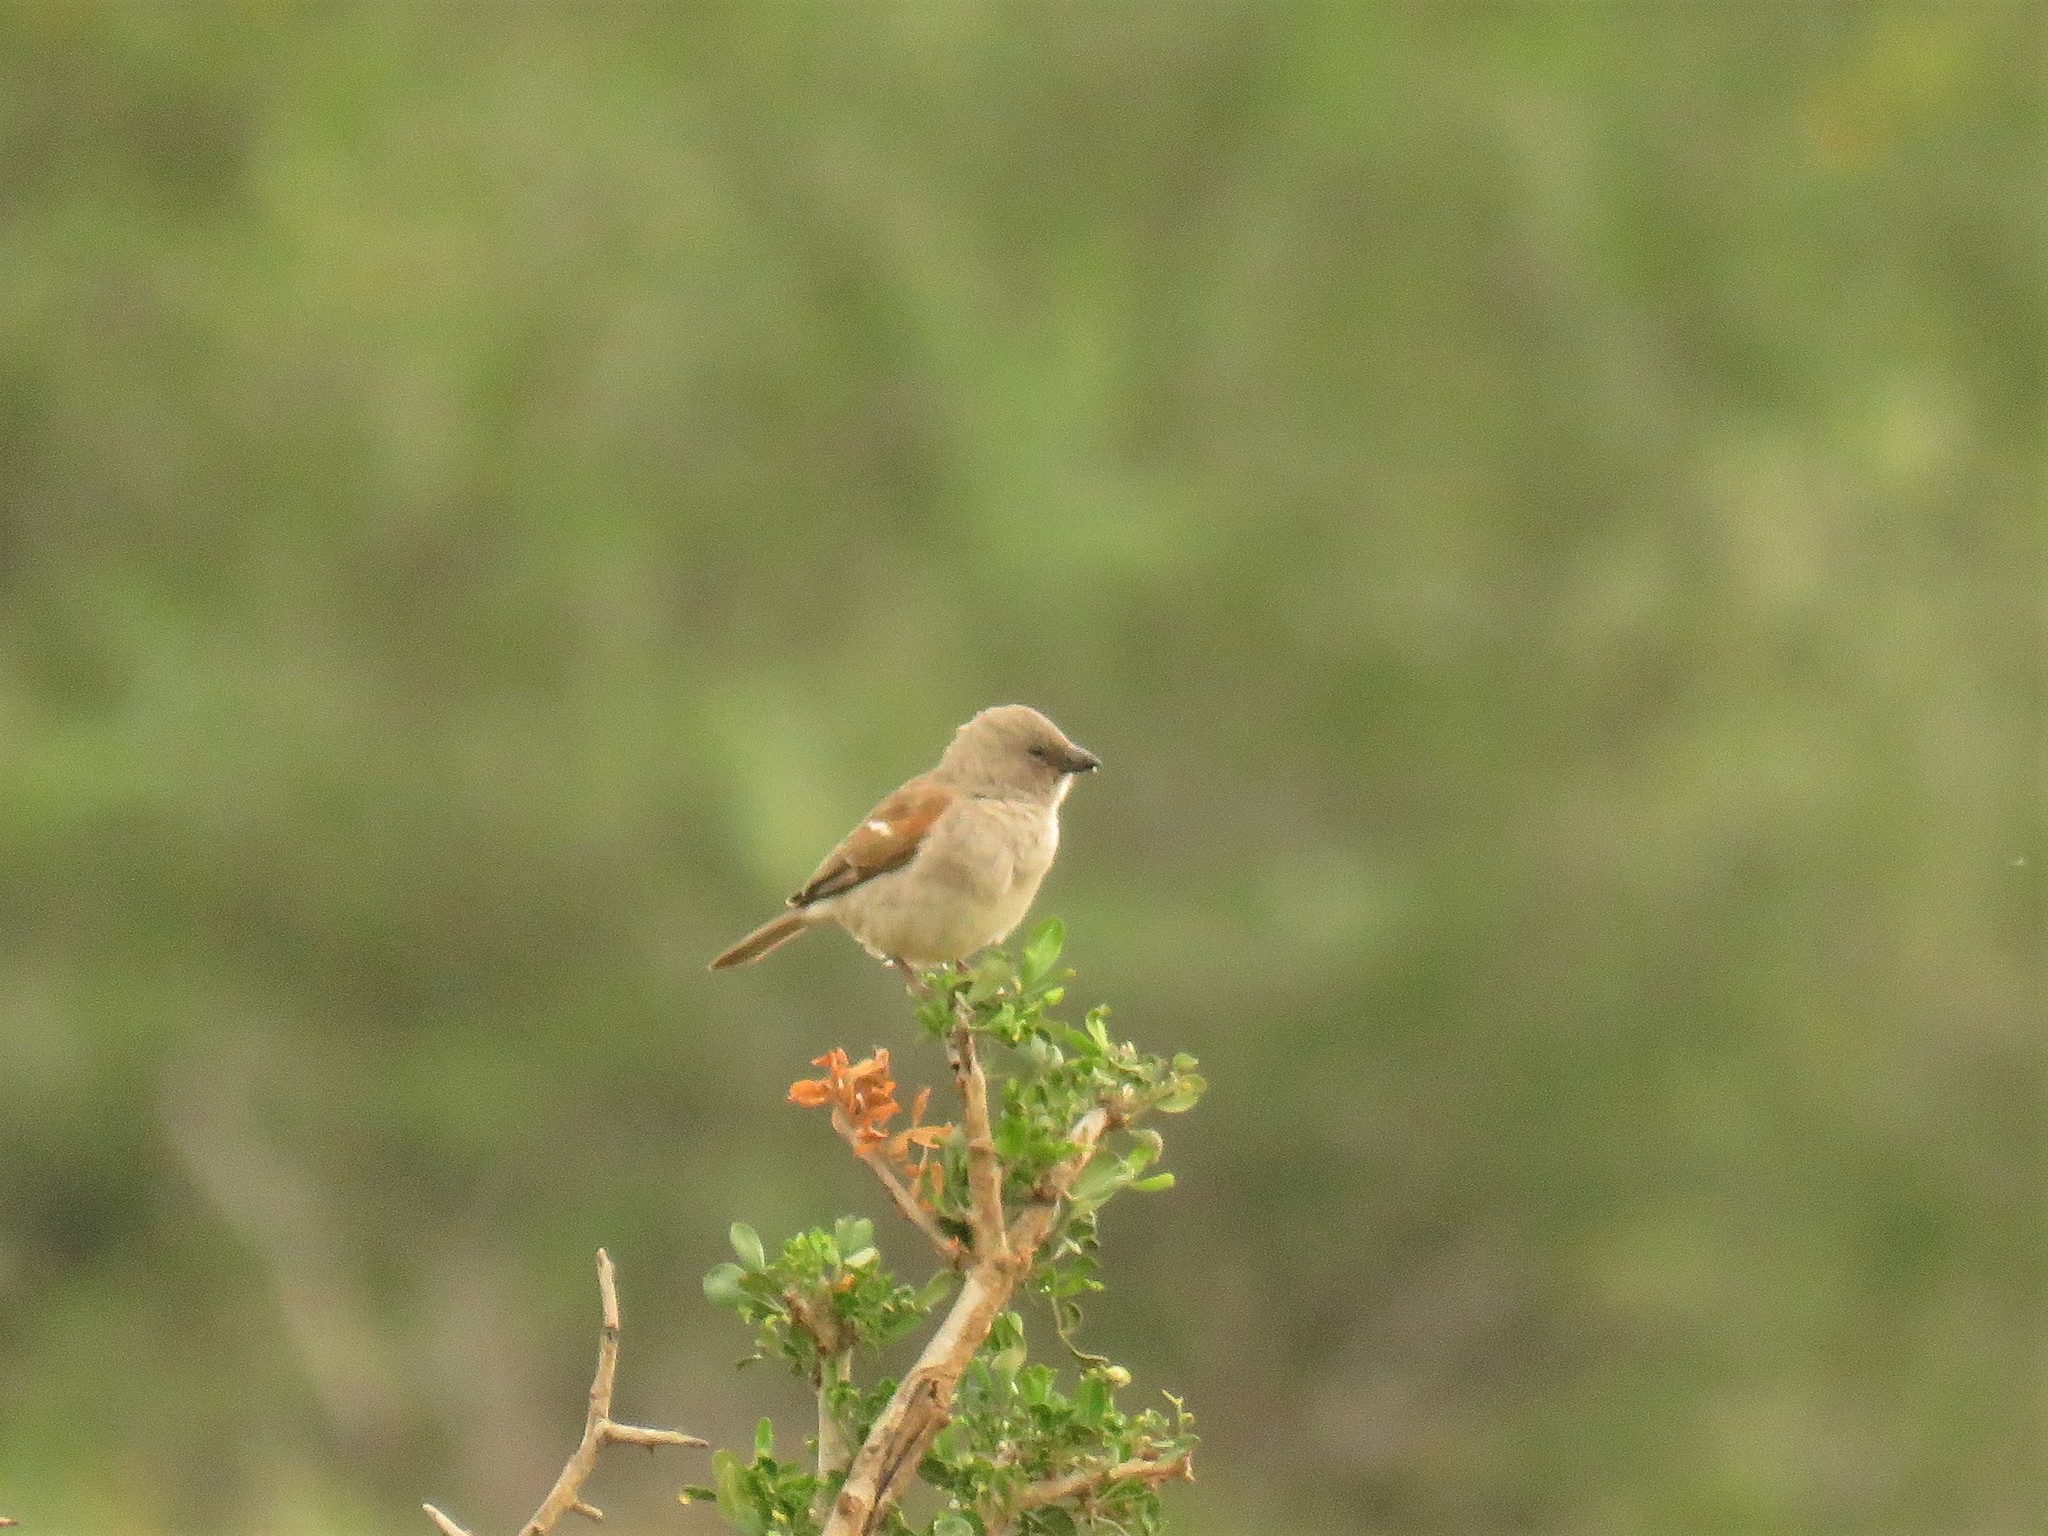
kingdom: Animalia
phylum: Chordata
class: Aves
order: Passeriformes
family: Passeridae
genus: Passer
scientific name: Passer diffusus
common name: Southern grey-headed sparrow
